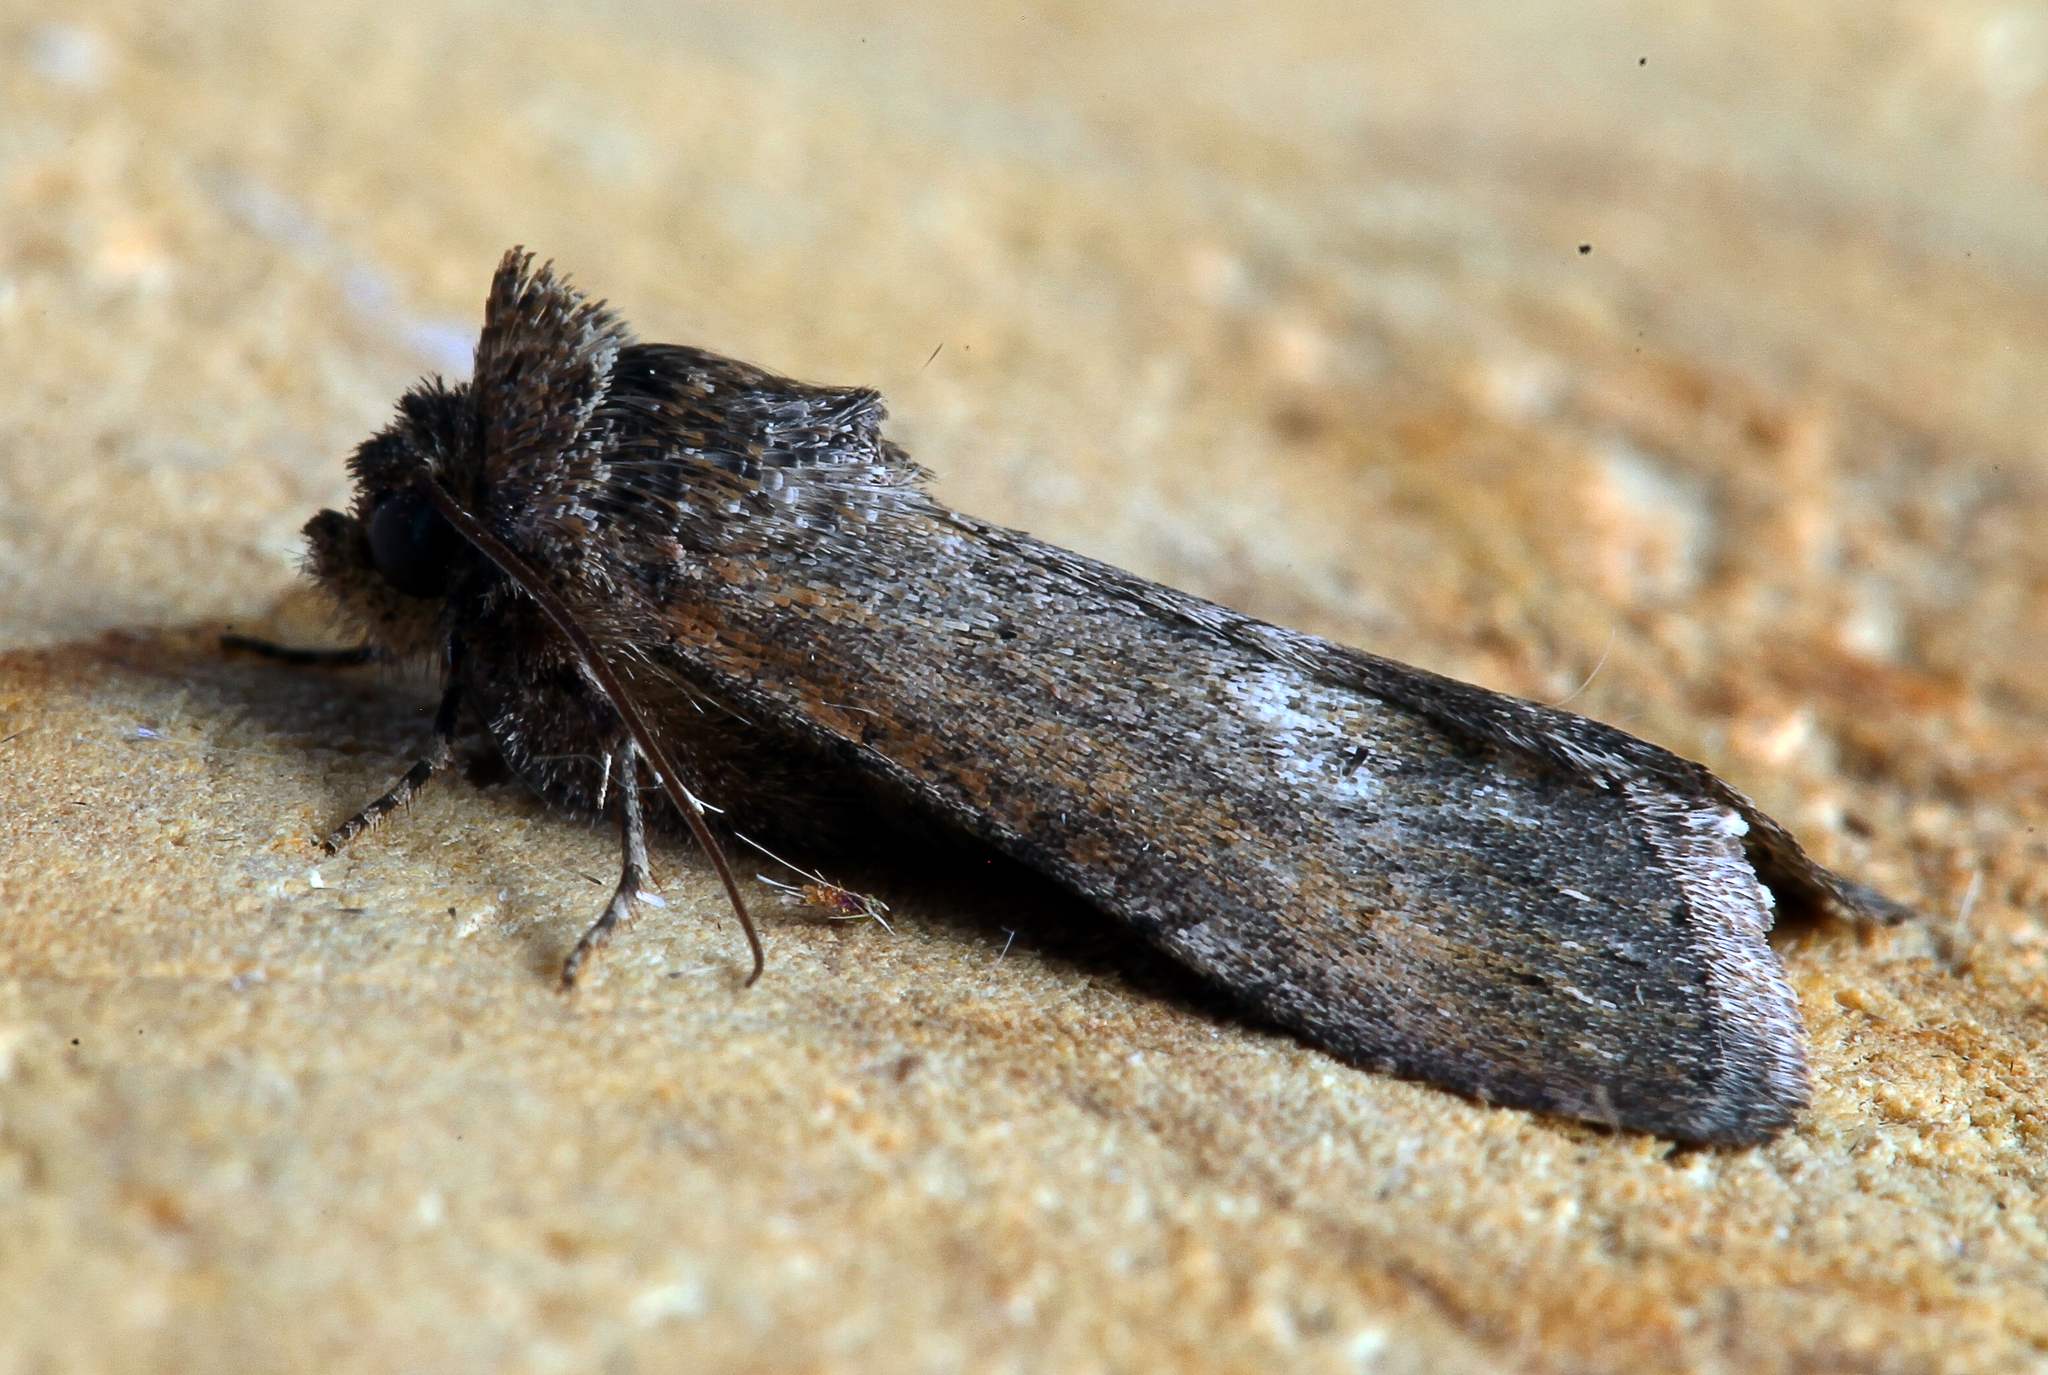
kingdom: Animalia
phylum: Arthropoda
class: Insecta
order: Lepidoptera
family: Noctuidae
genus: Sympistis
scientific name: Sympistis heliophila
